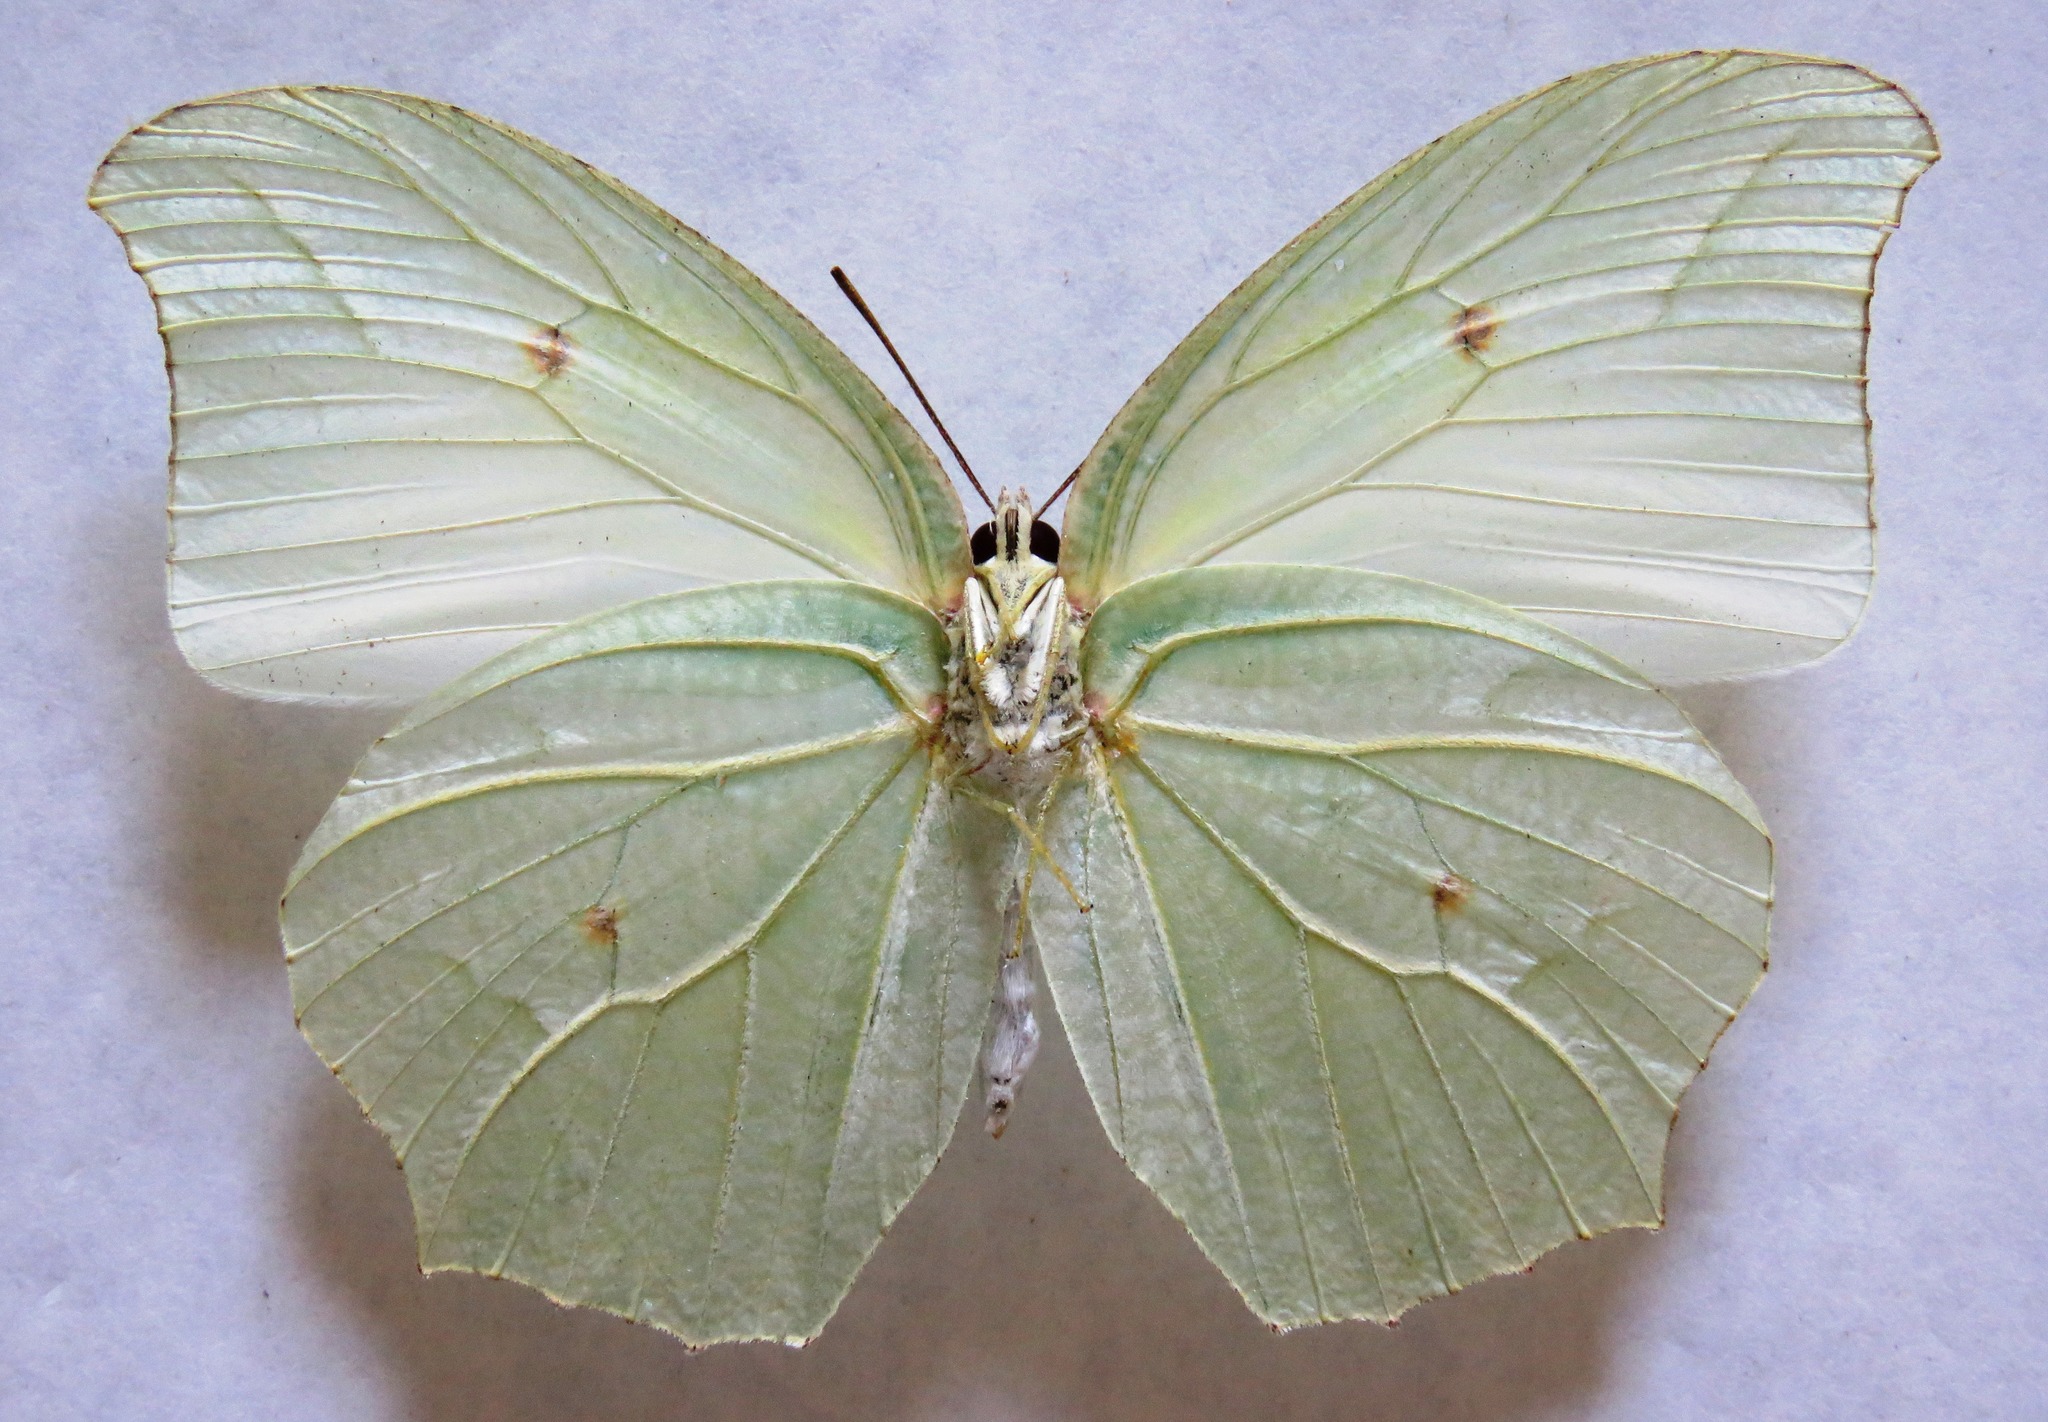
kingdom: Animalia
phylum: Arthropoda
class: Insecta
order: Lepidoptera
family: Pieridae
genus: Anteos
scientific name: Anteos clorinde
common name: White angled sulphur
